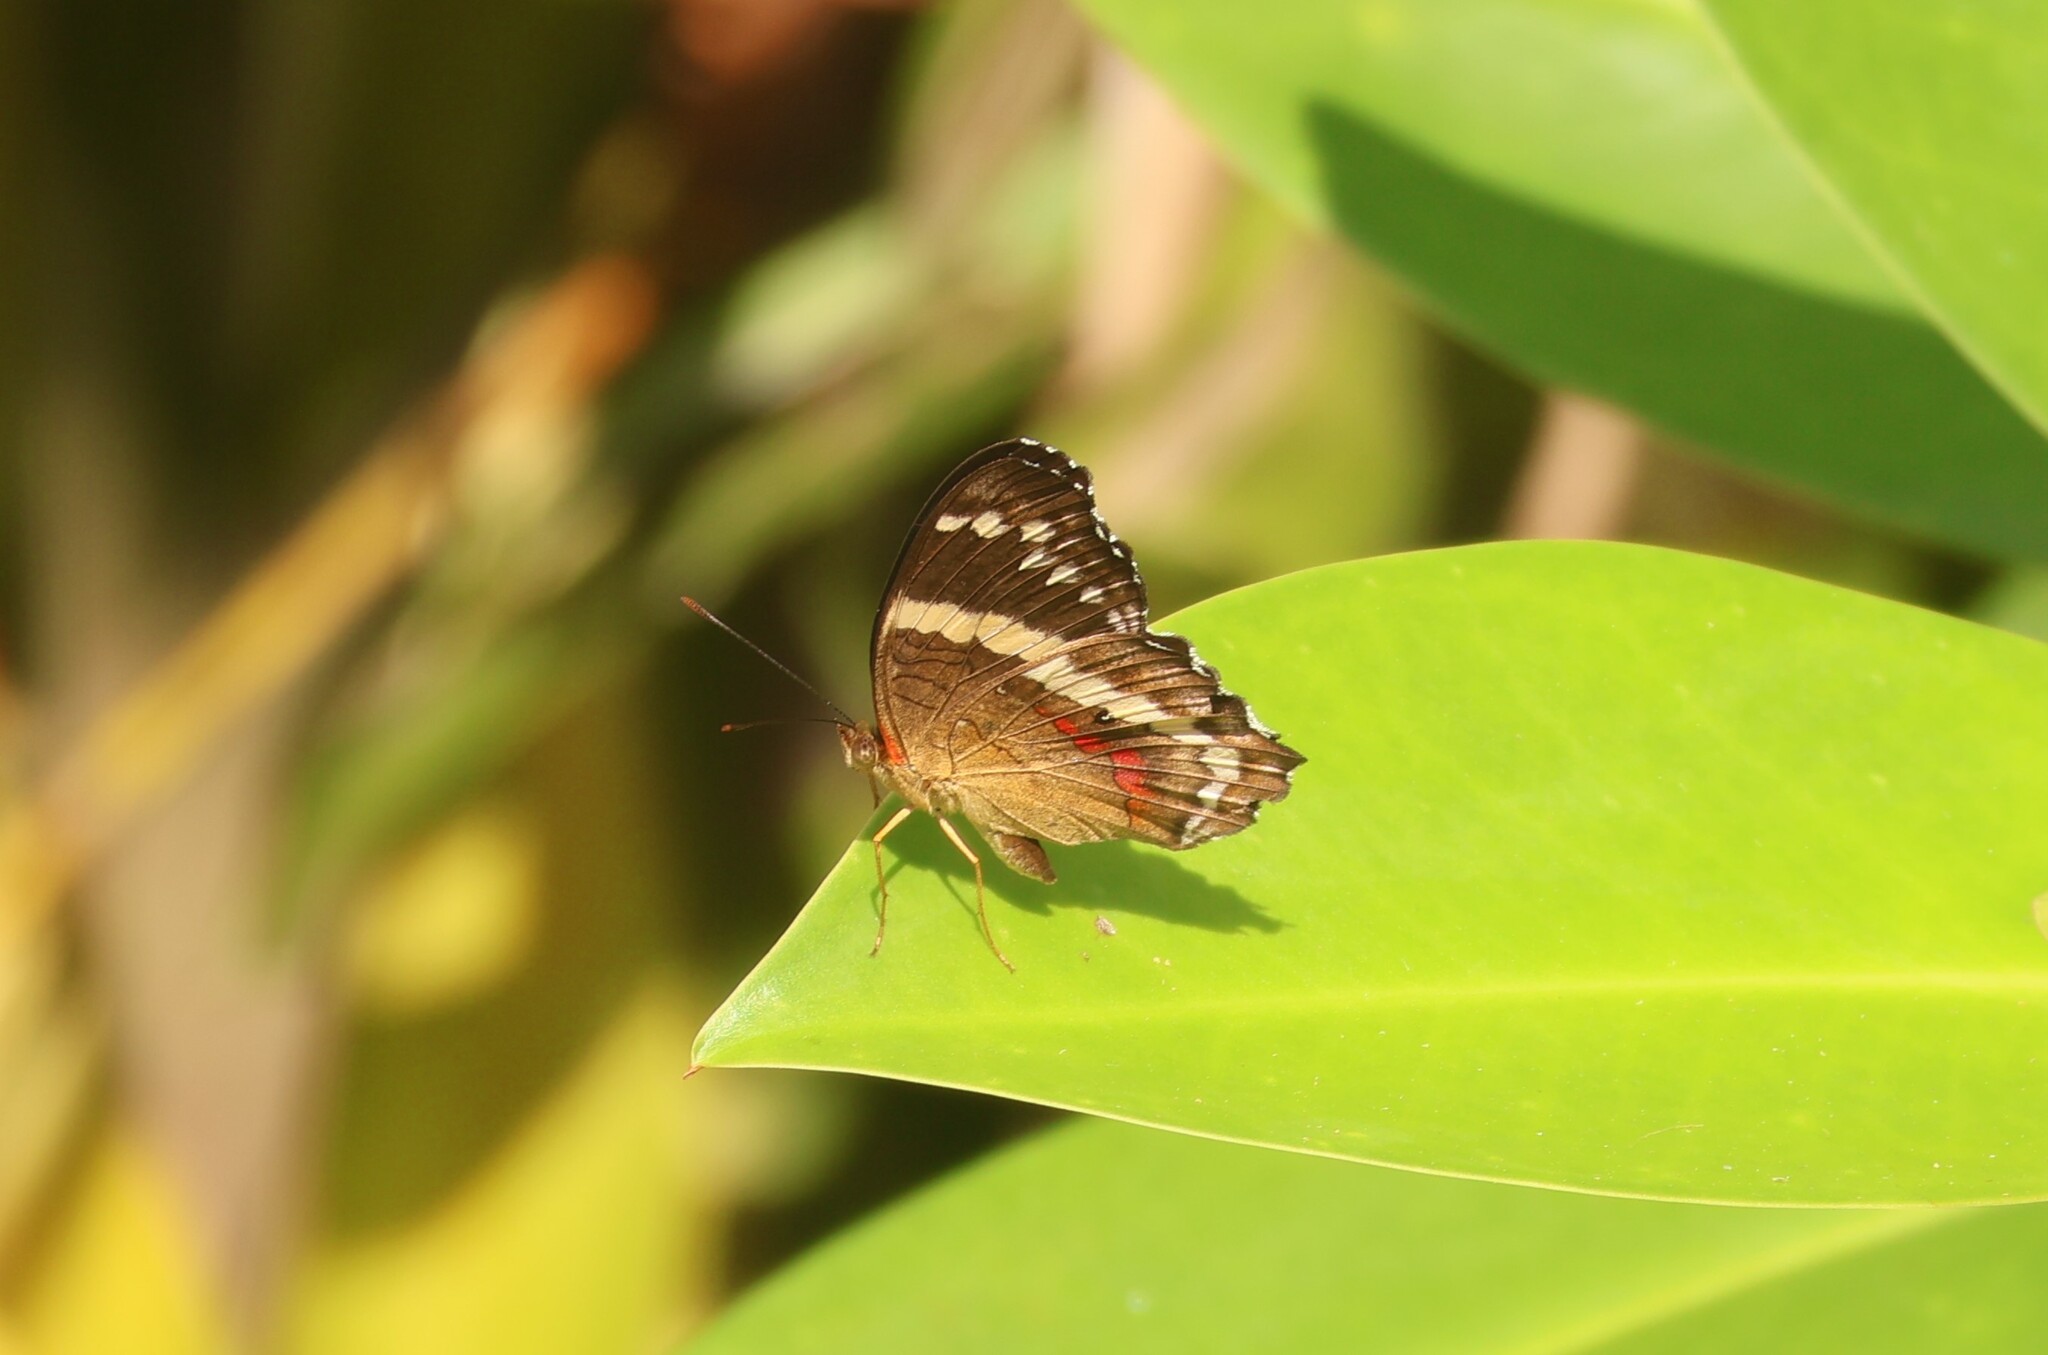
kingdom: Animalia
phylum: Arthropoda
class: Insecta
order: Lepidoptera
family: Nymphalidae
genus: Anartia
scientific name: Anartia fatima
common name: Banded peacock
